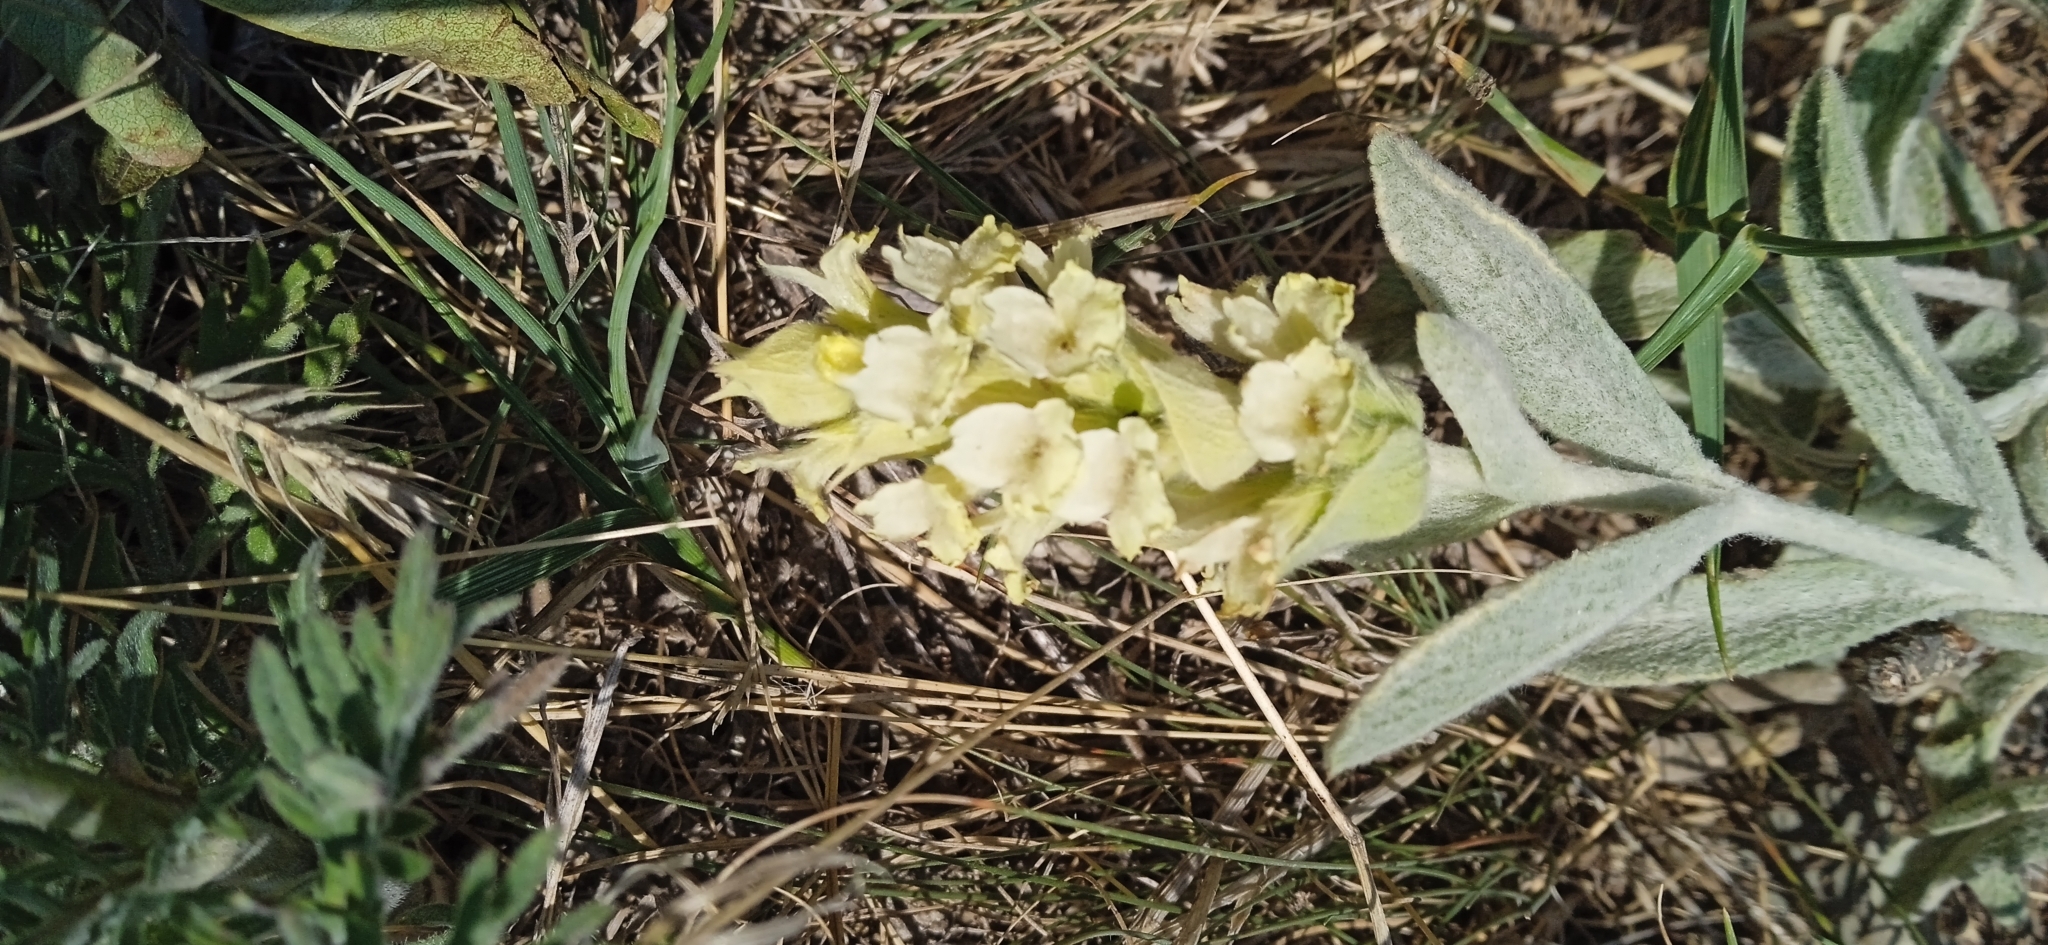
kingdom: Plantae
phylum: Tracheophyta
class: Magnoliopsida
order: Lamiales
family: Lamiaceae
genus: Sideritis
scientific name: Sideritis euxina
